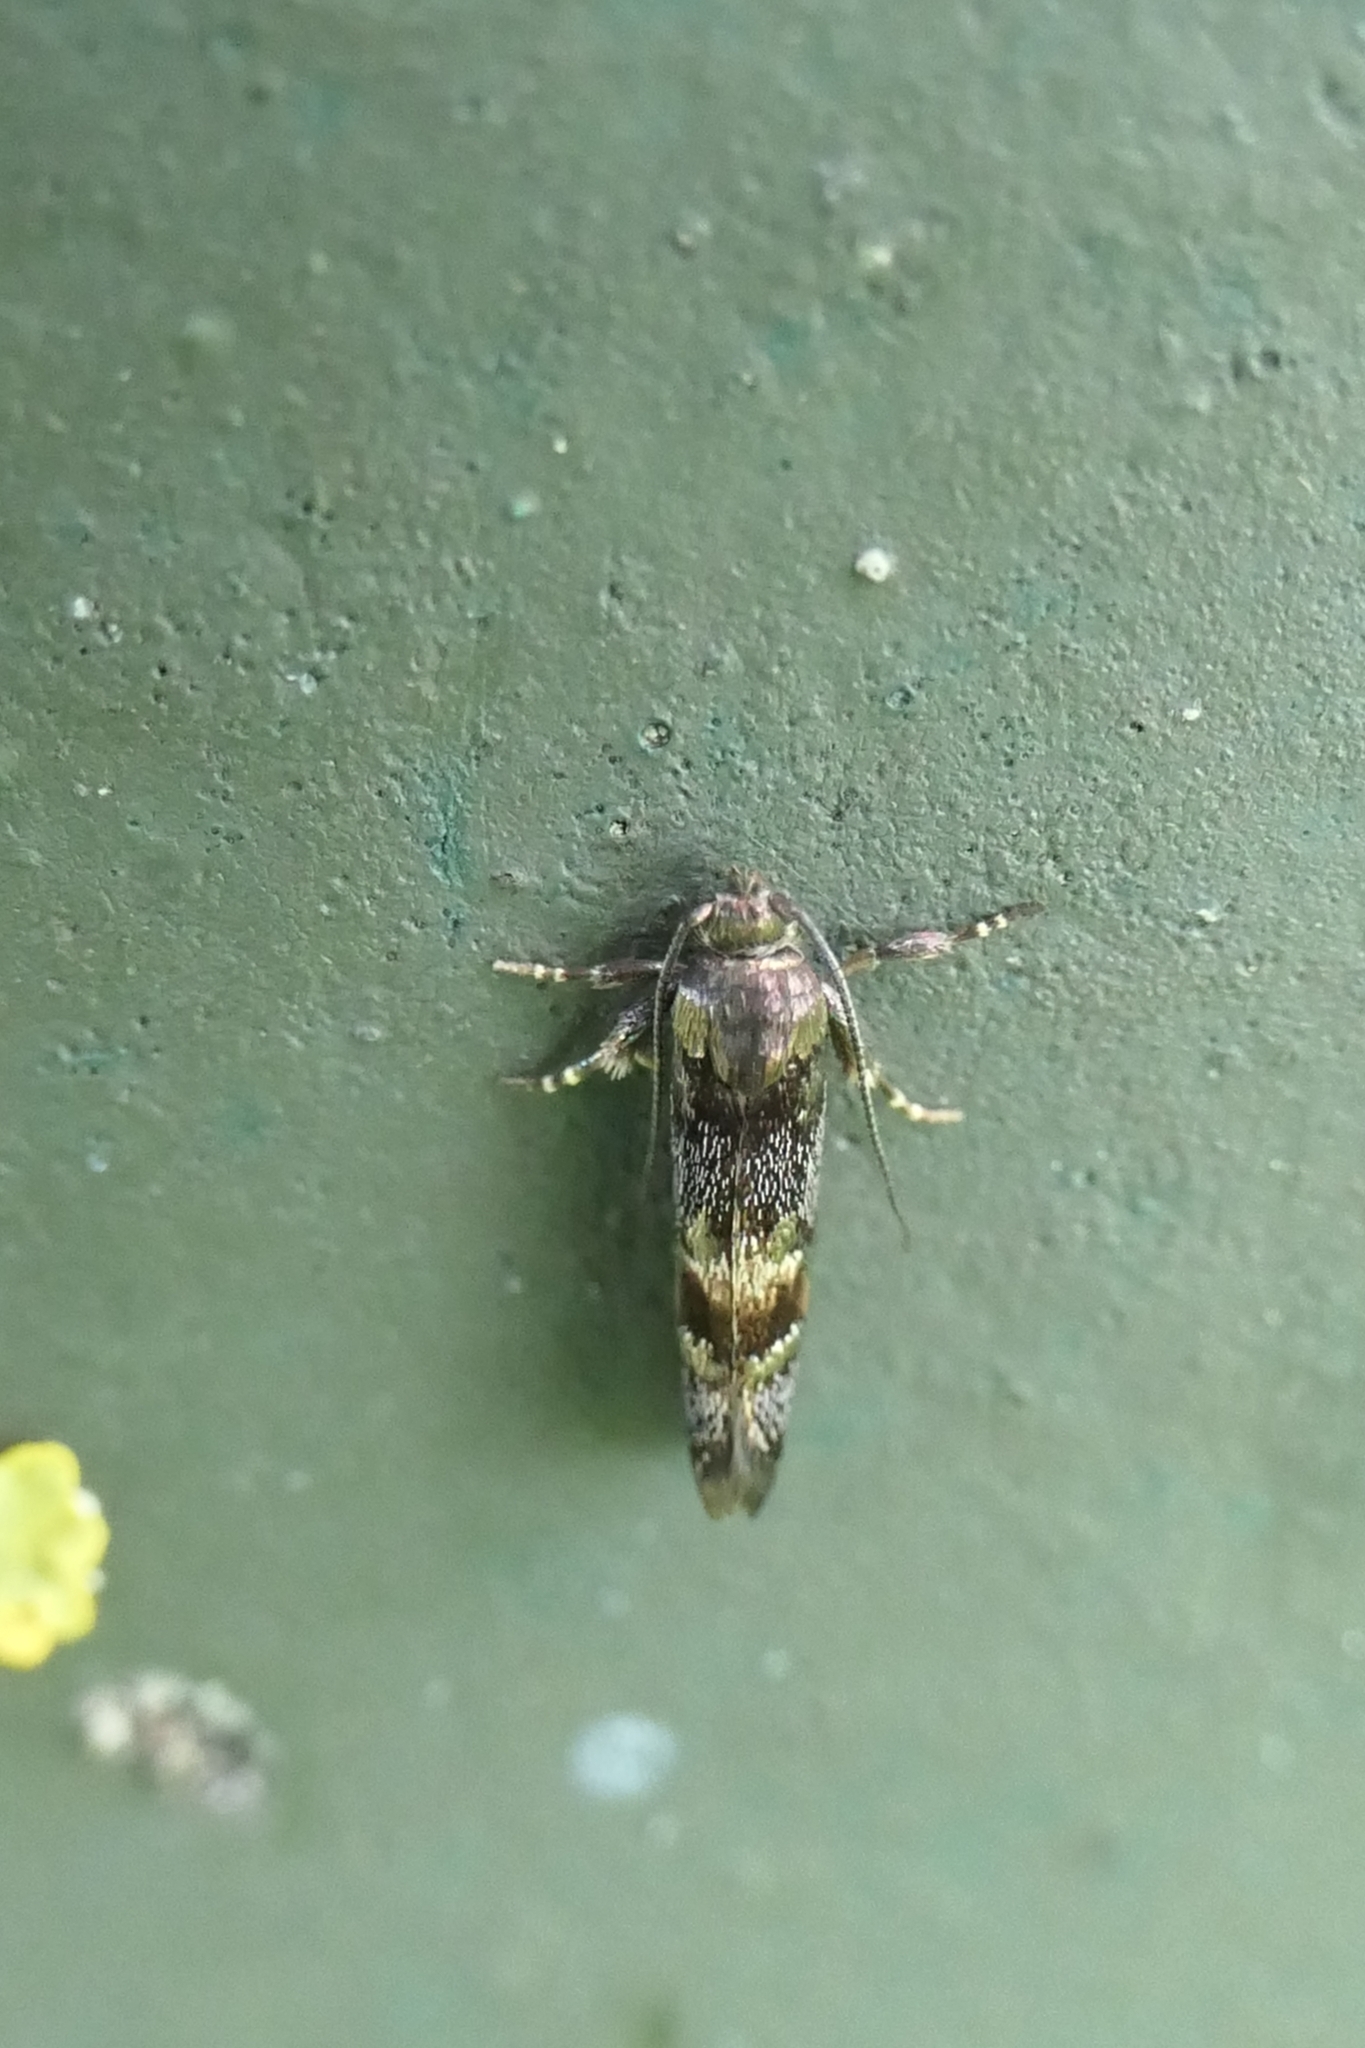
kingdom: Animalia
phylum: Arthropoda
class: Insecta
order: Lepidoptera
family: Oecophoridae
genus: Hierodoris
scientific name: Hierodoris torrida
